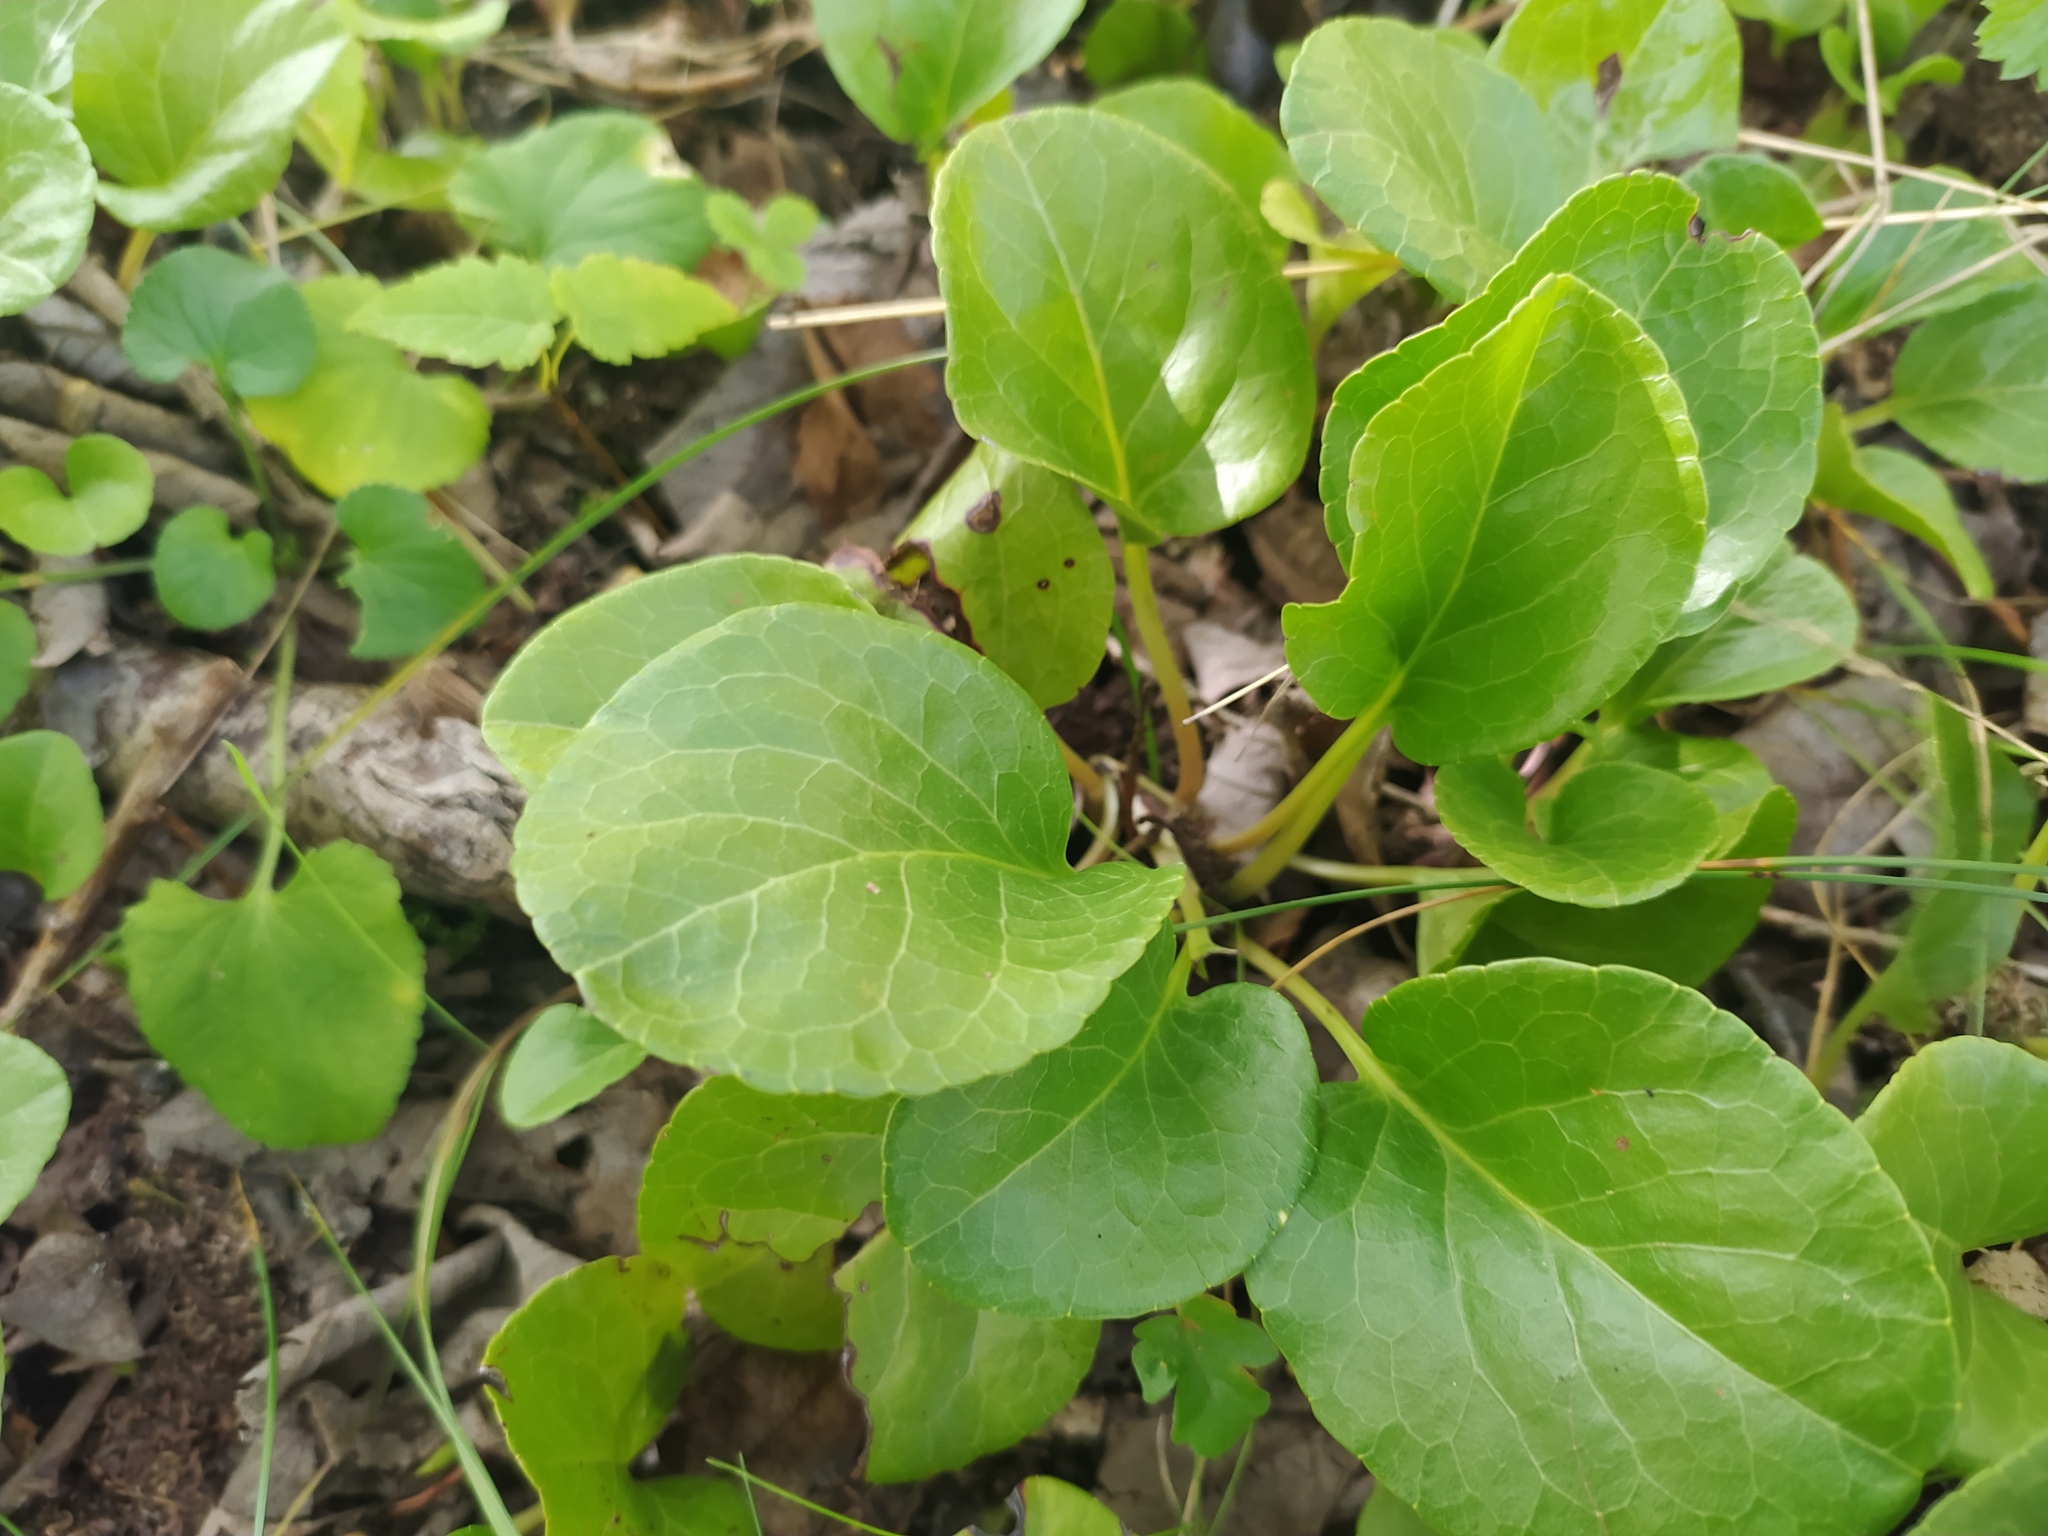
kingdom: Plantae
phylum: Tracheophyta
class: Magnoliopsida
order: Ericales
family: Ericaceae
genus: Pyrola
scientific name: Pyrola rotundifolia
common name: Round-leaved wintergreen
